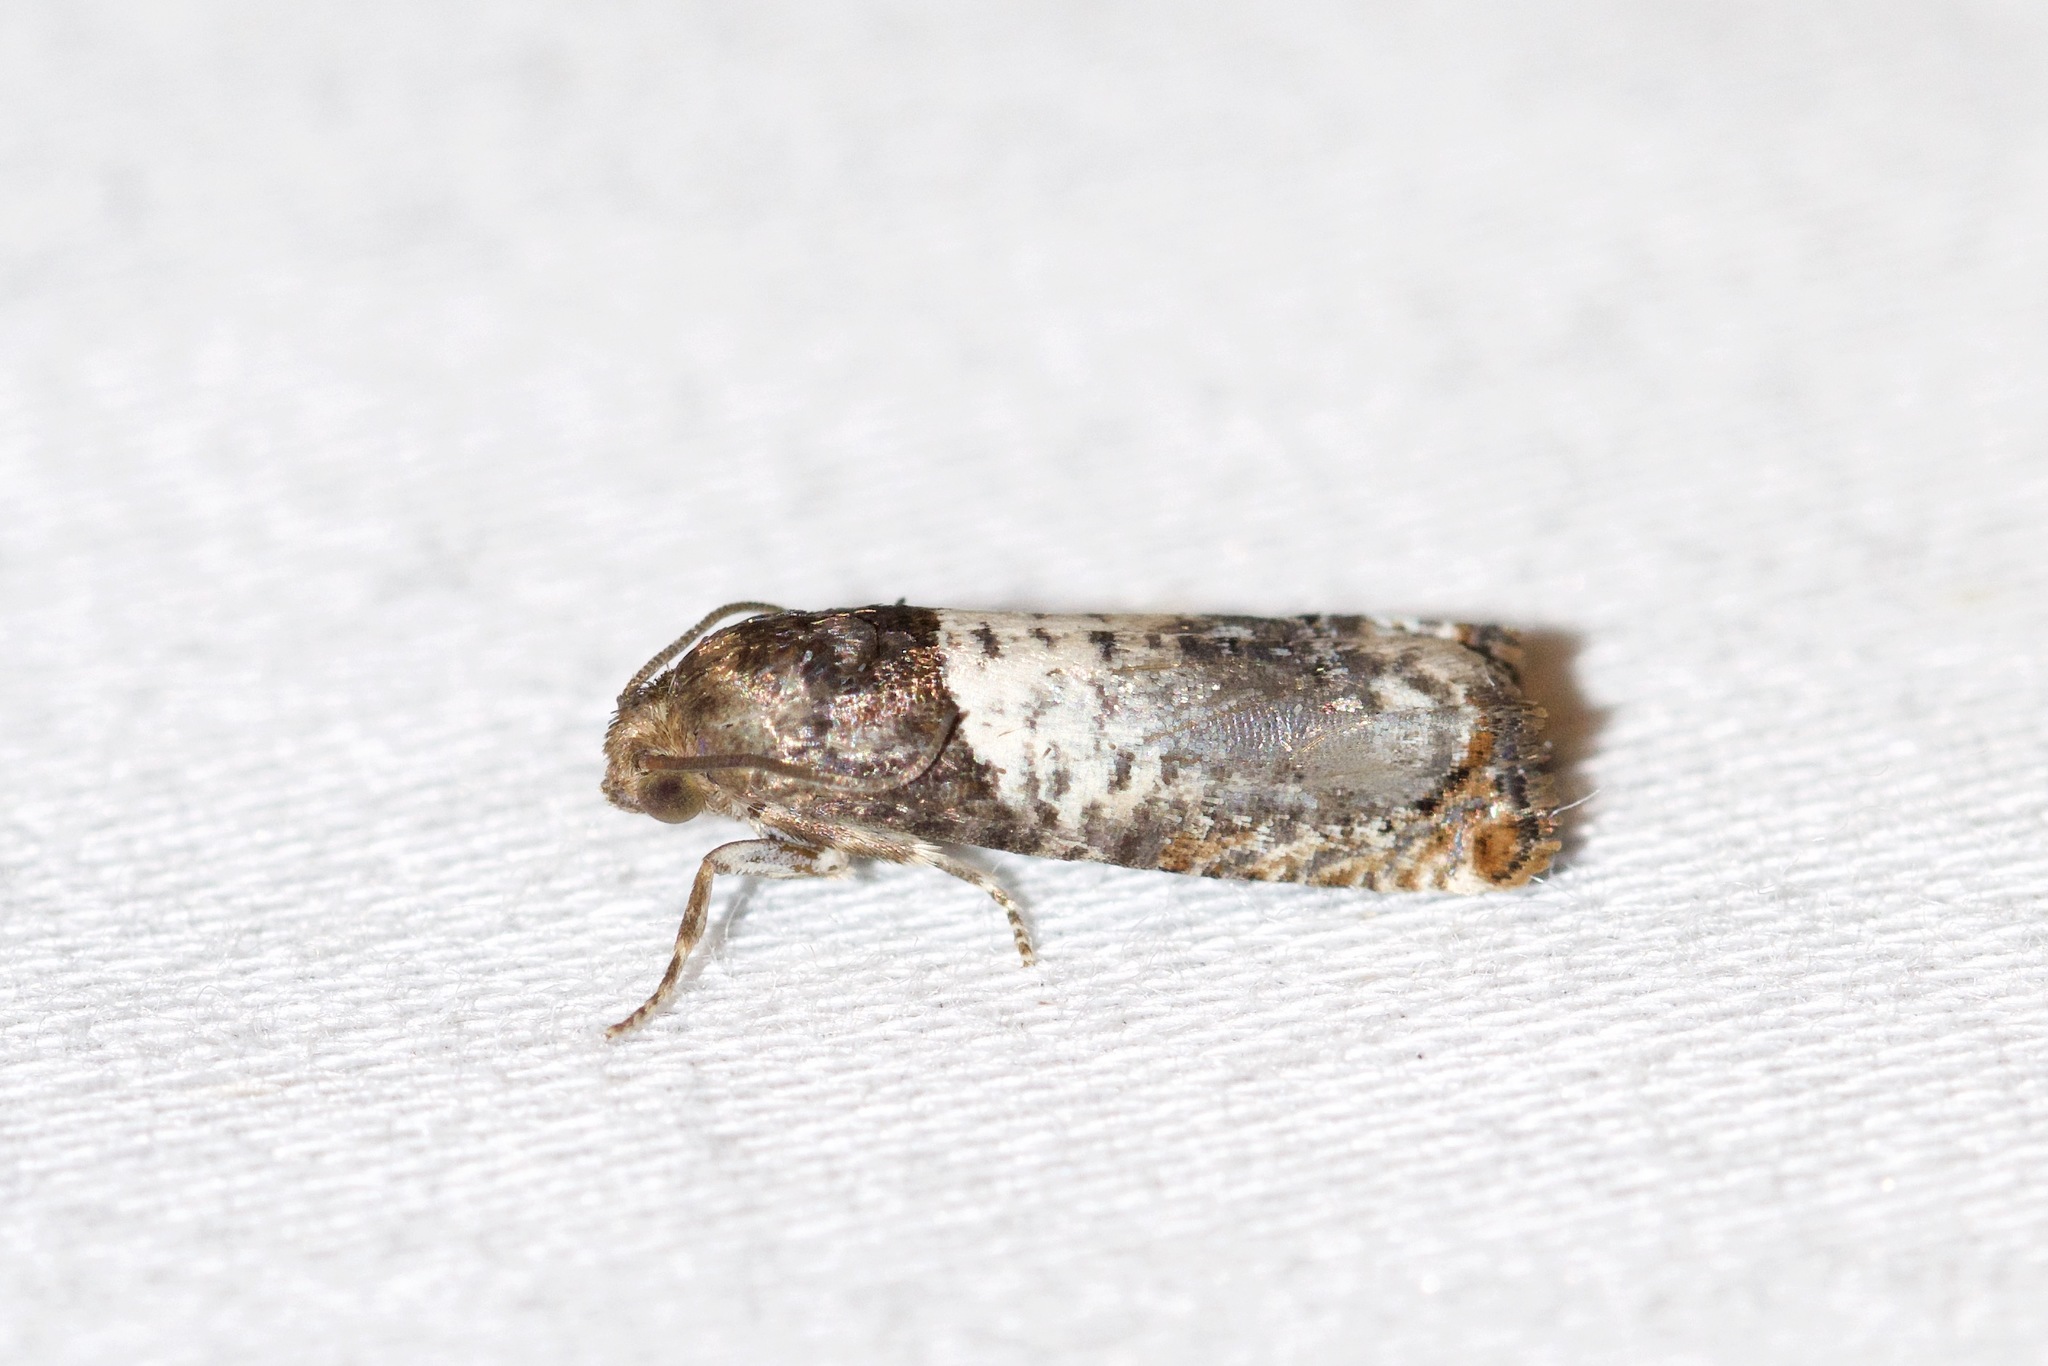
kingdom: Animalia
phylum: Arthropoda
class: Insecta
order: Lepidoptera
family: Tortricidae
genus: Epiblema
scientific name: Epiblema scudderiana
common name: Goldenrod gall moth
